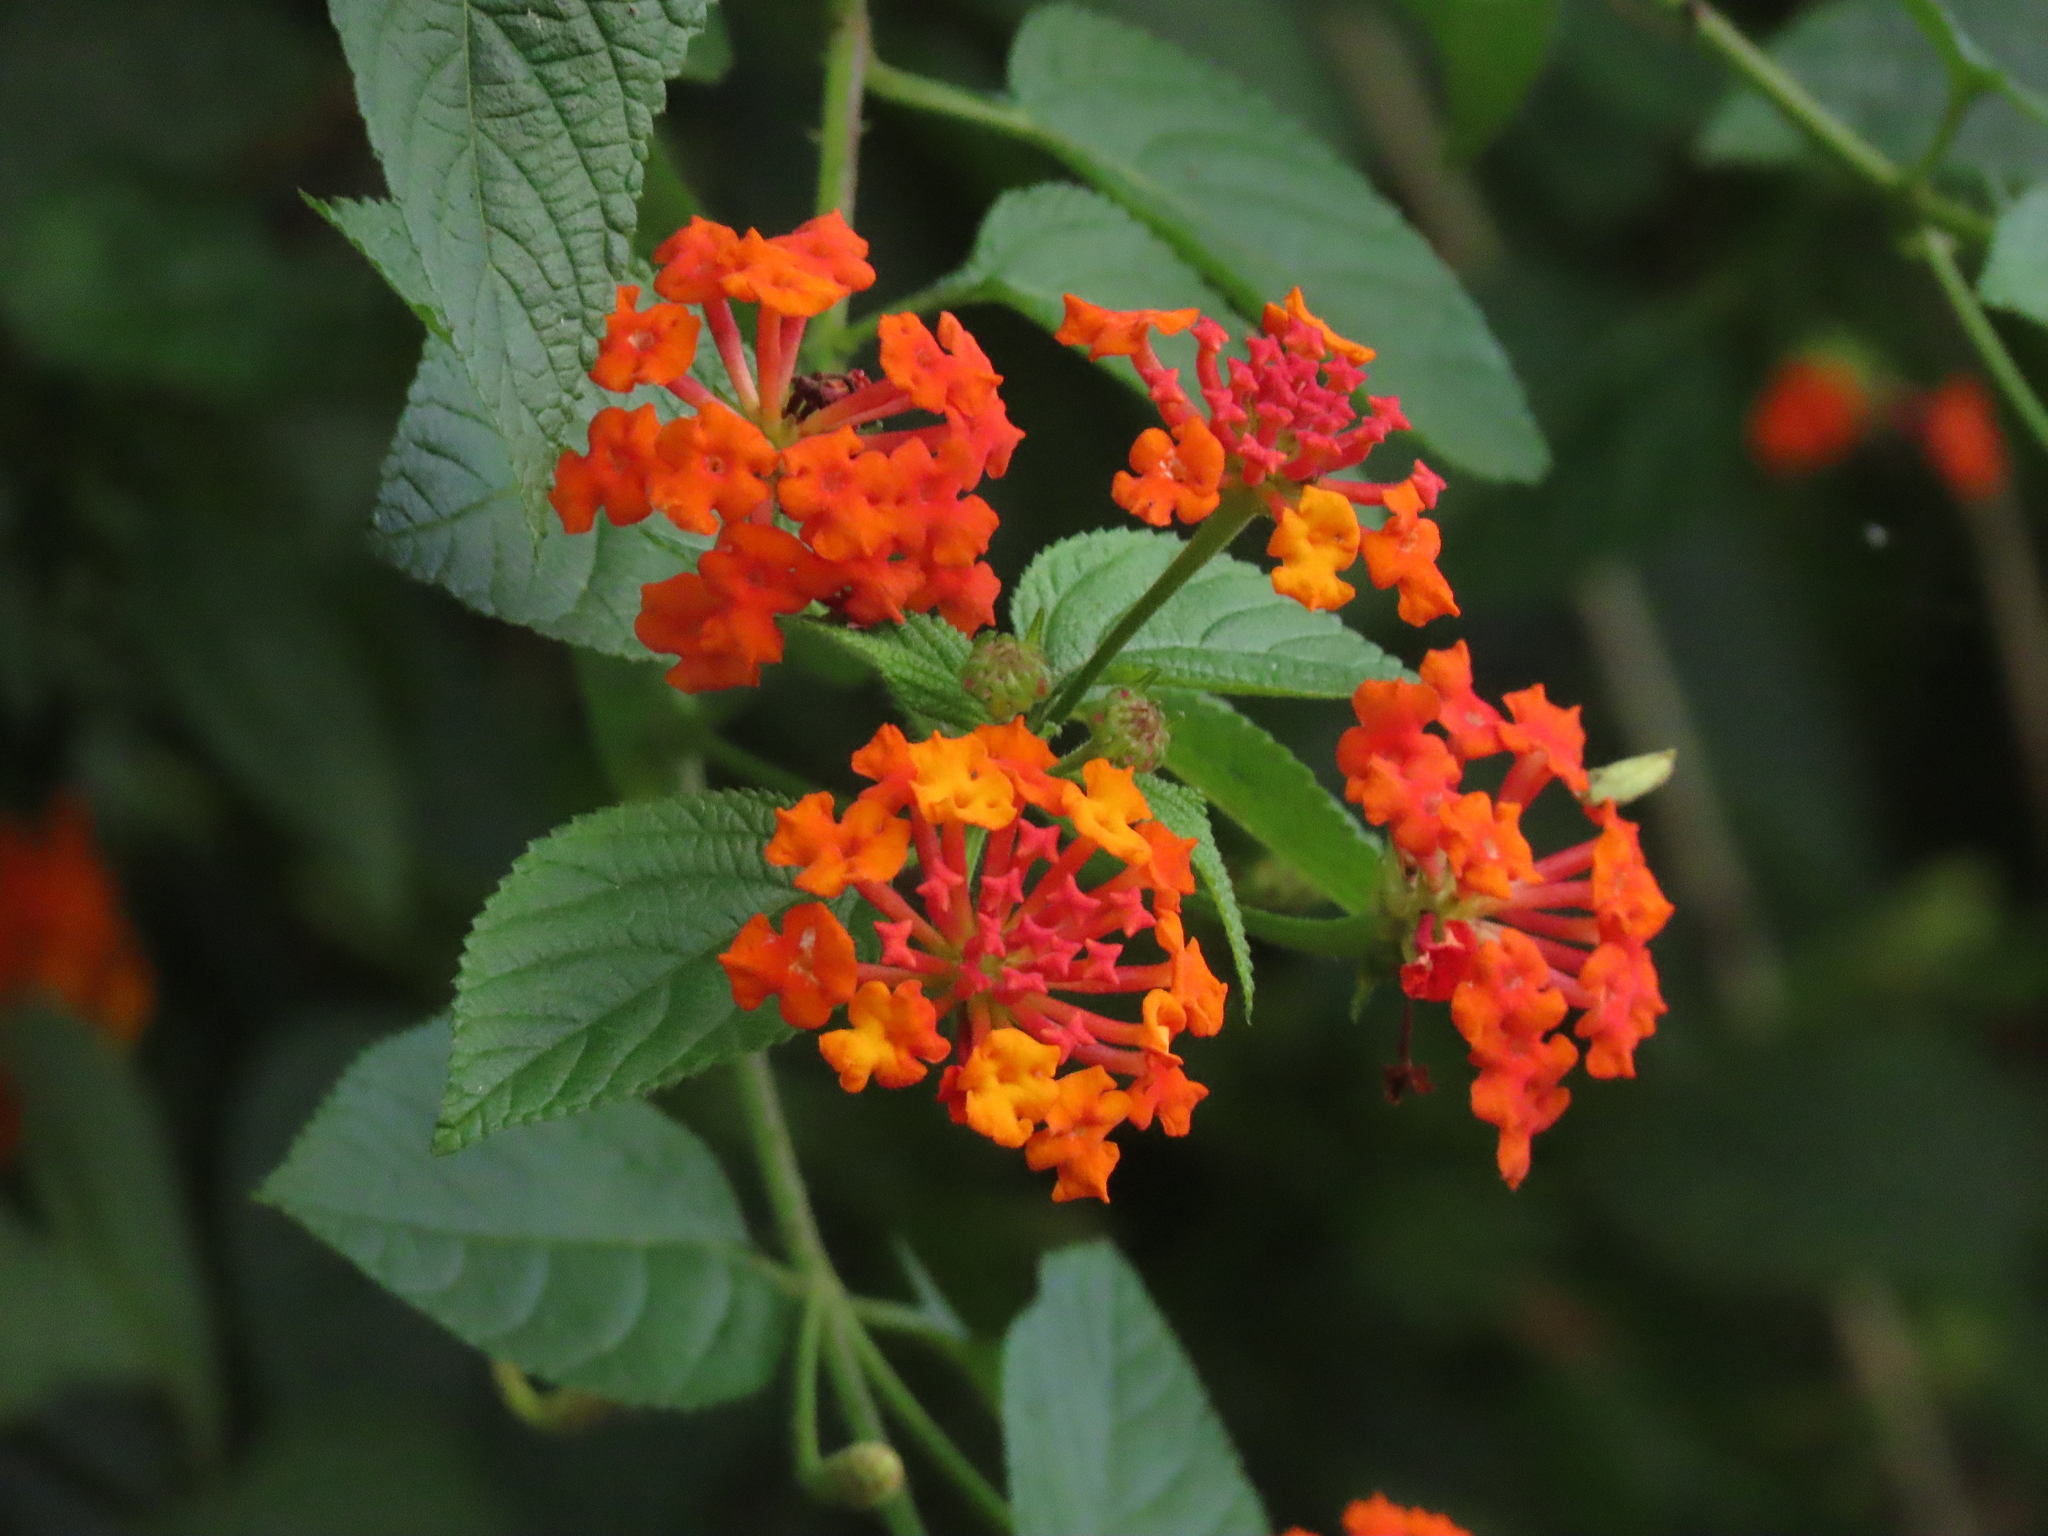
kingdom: Plantae
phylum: Tracheophyta
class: Magnoliopsida
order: Lamiales
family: Verbenaceae
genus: Lantana
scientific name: Lantana camara
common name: Lantana
